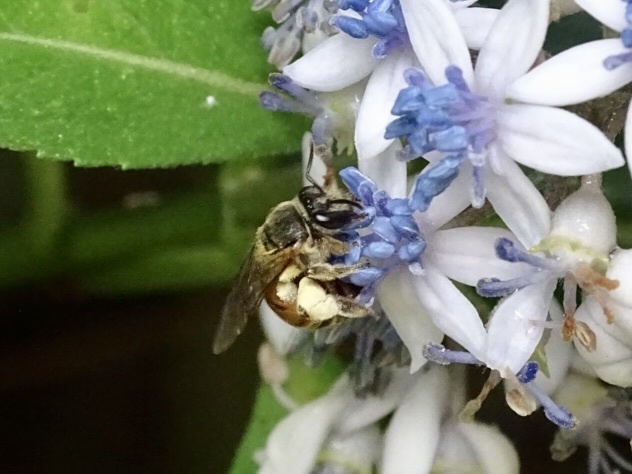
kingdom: Animalia
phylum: Arthropoda
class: Insecta
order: Hymenoptera
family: Halictidae
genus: Nomia
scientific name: Nomia penangensis
